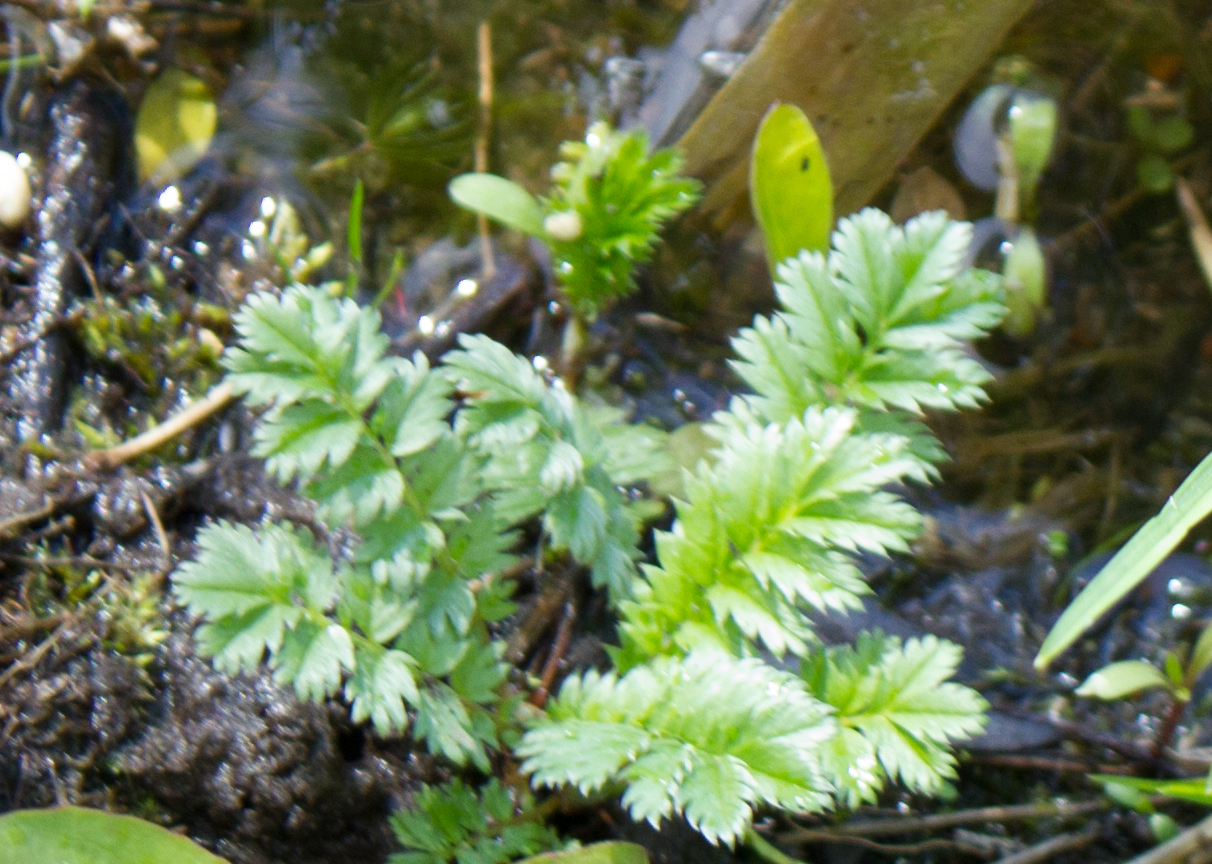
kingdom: Plantae
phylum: Tracheophyta
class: Magnoliopsida
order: Rosales
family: Rosaceae
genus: Argentina
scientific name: Argentina anserina
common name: Common silverweed
